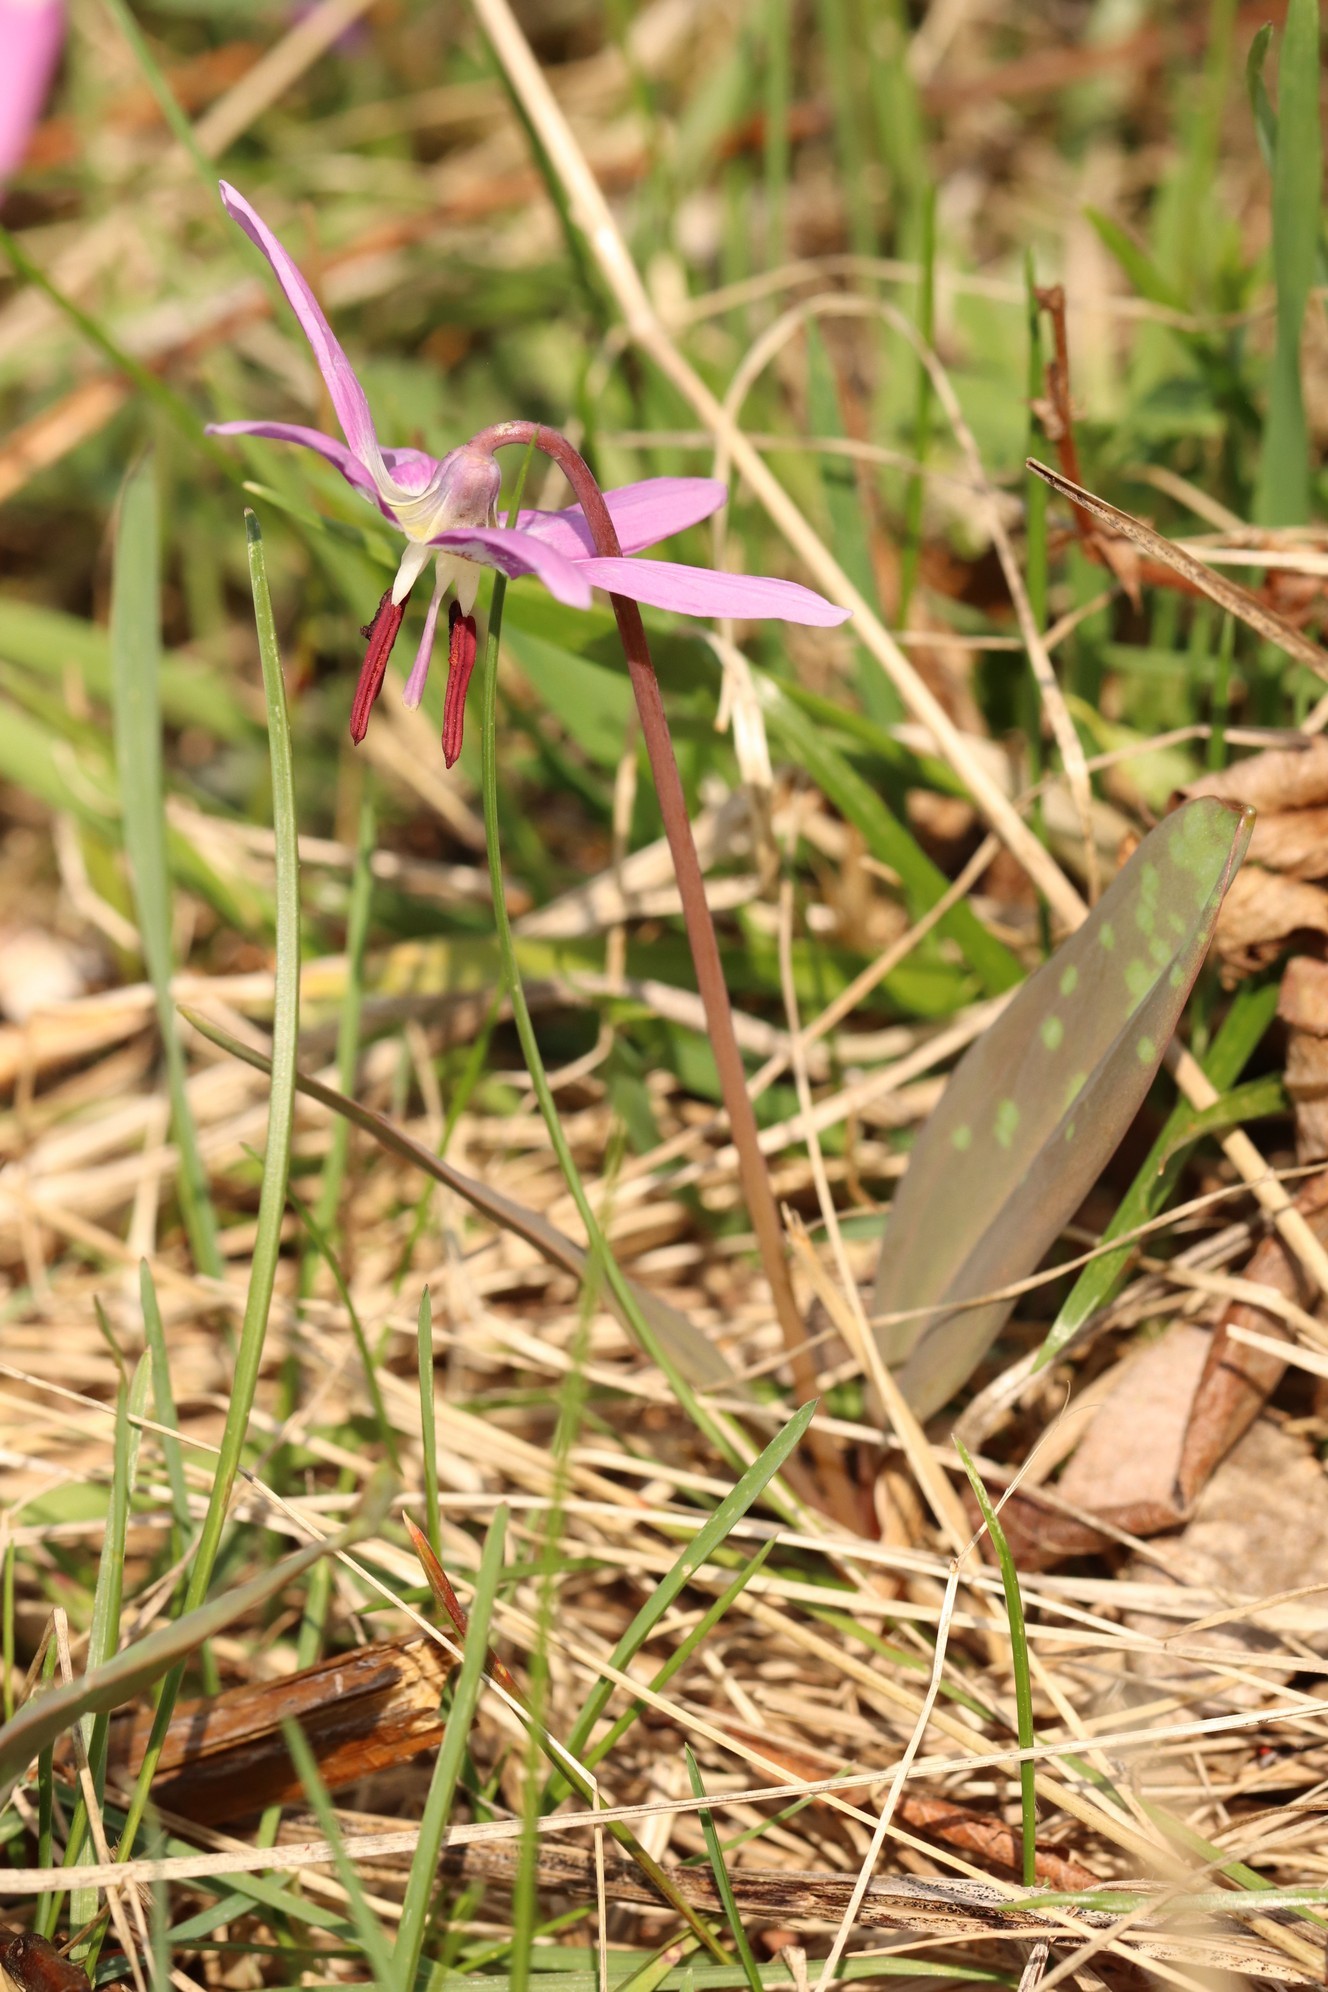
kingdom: Plantae
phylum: Tracheophyta
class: Liliopsida
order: Liliales
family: Liliaceae
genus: Erythronium
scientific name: Erythronium sulevii
